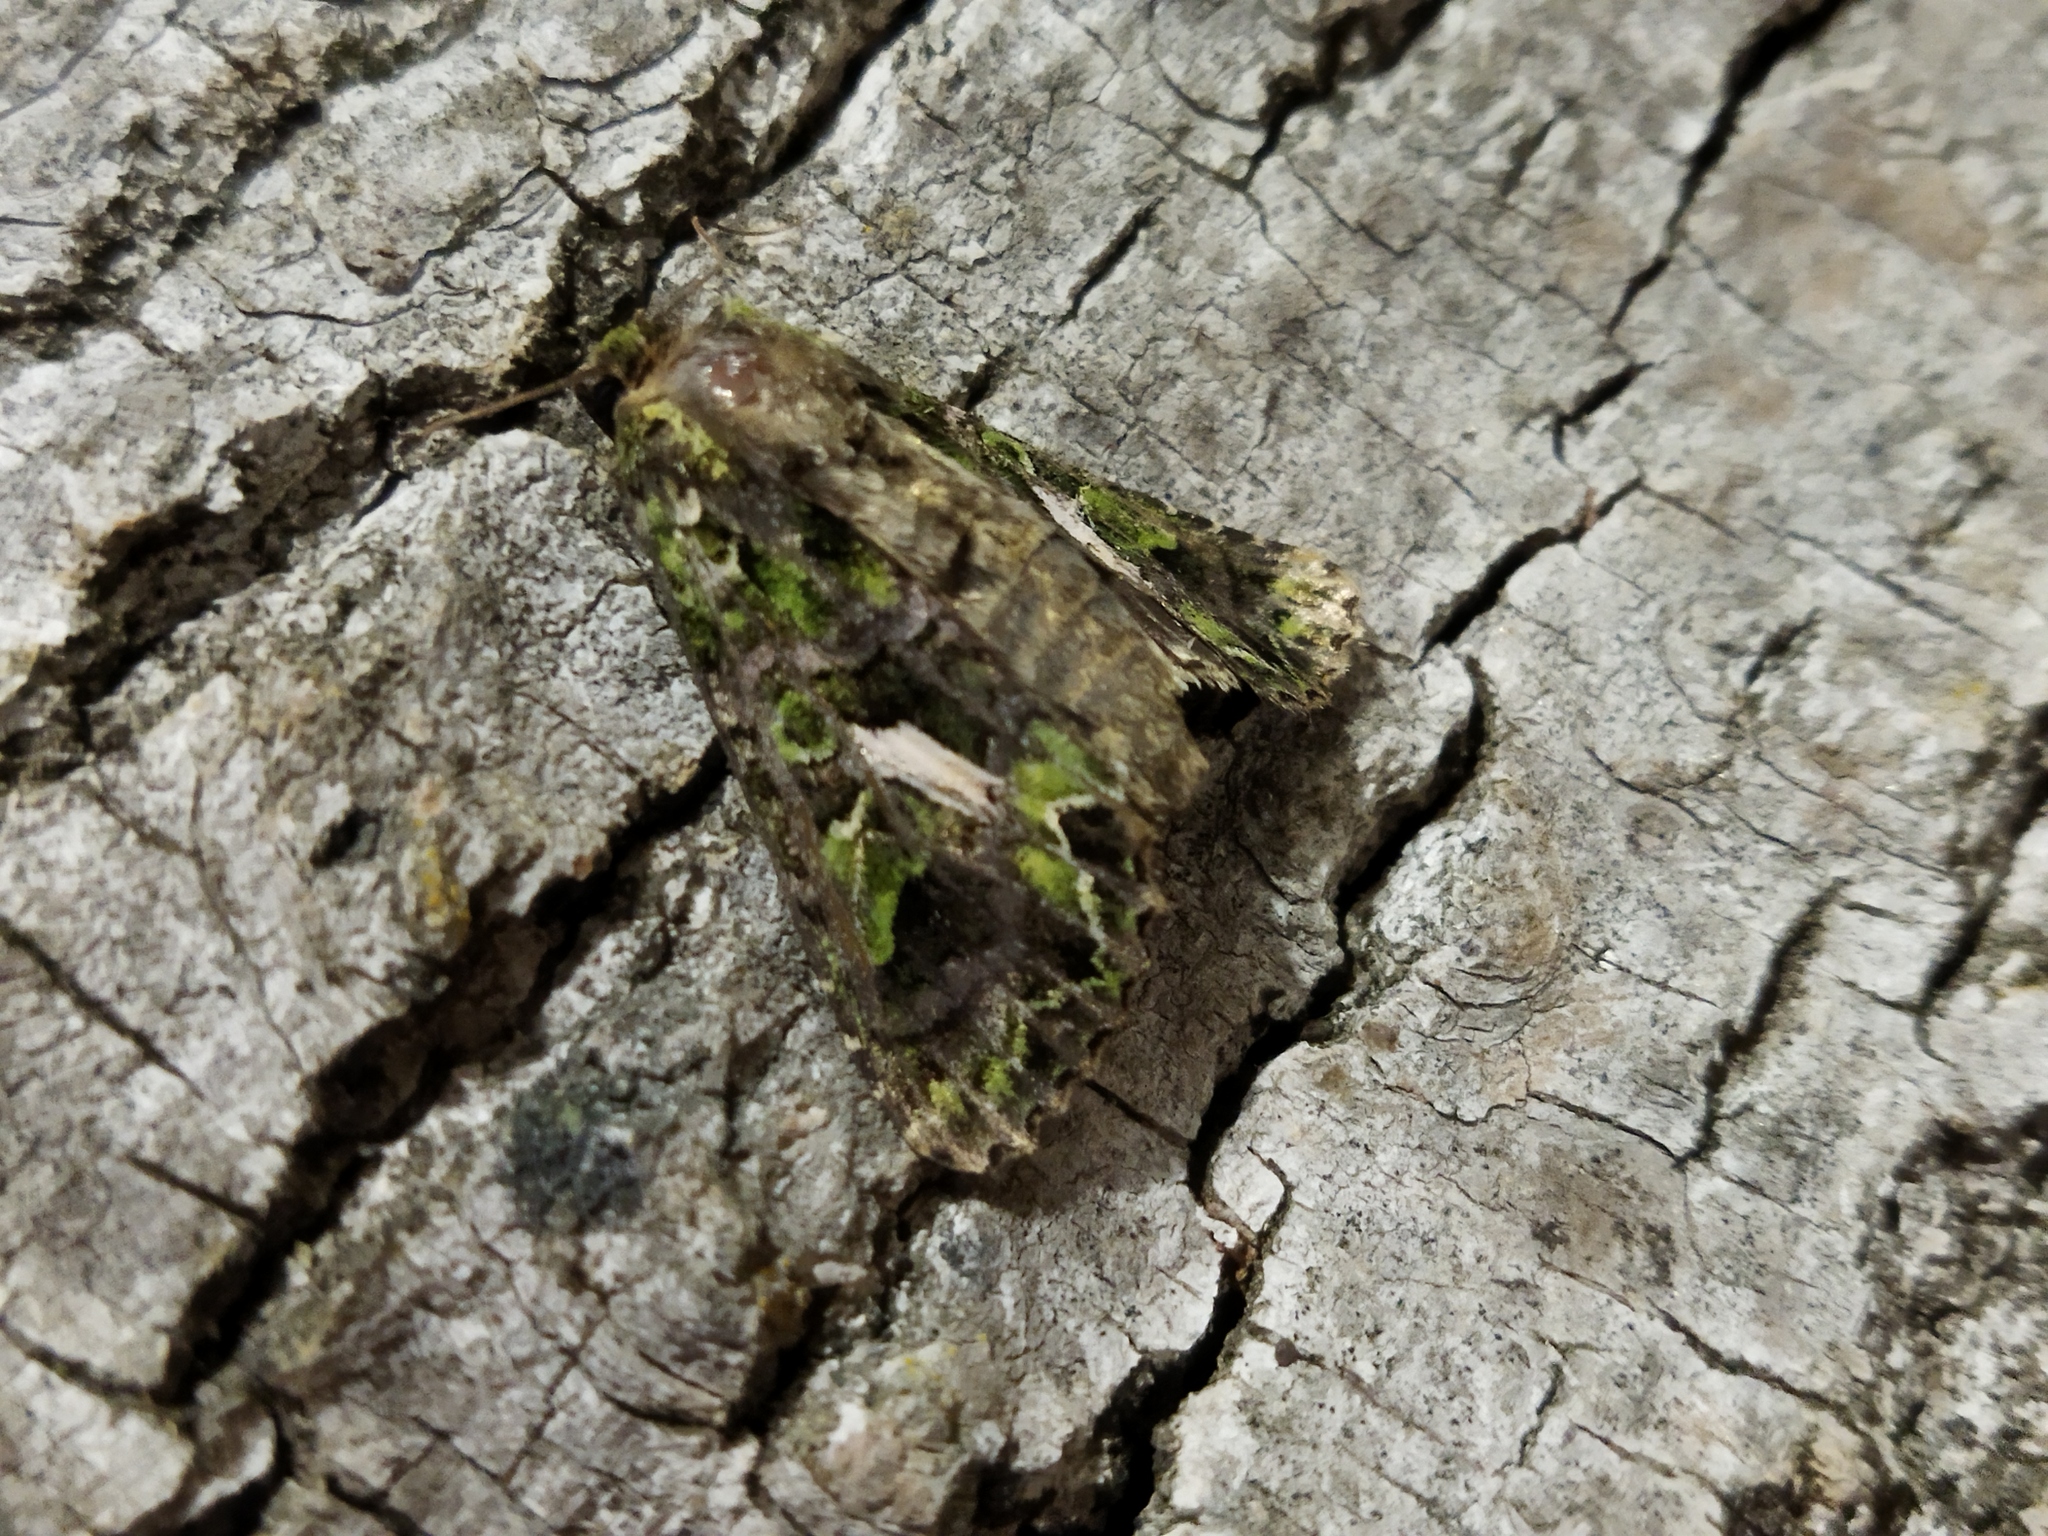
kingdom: Animalia
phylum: Arthropoda
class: Insecta
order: Lepidoptera
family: Noctuidae
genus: Trachea
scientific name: Trachea atriplicis
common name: Orache moth
